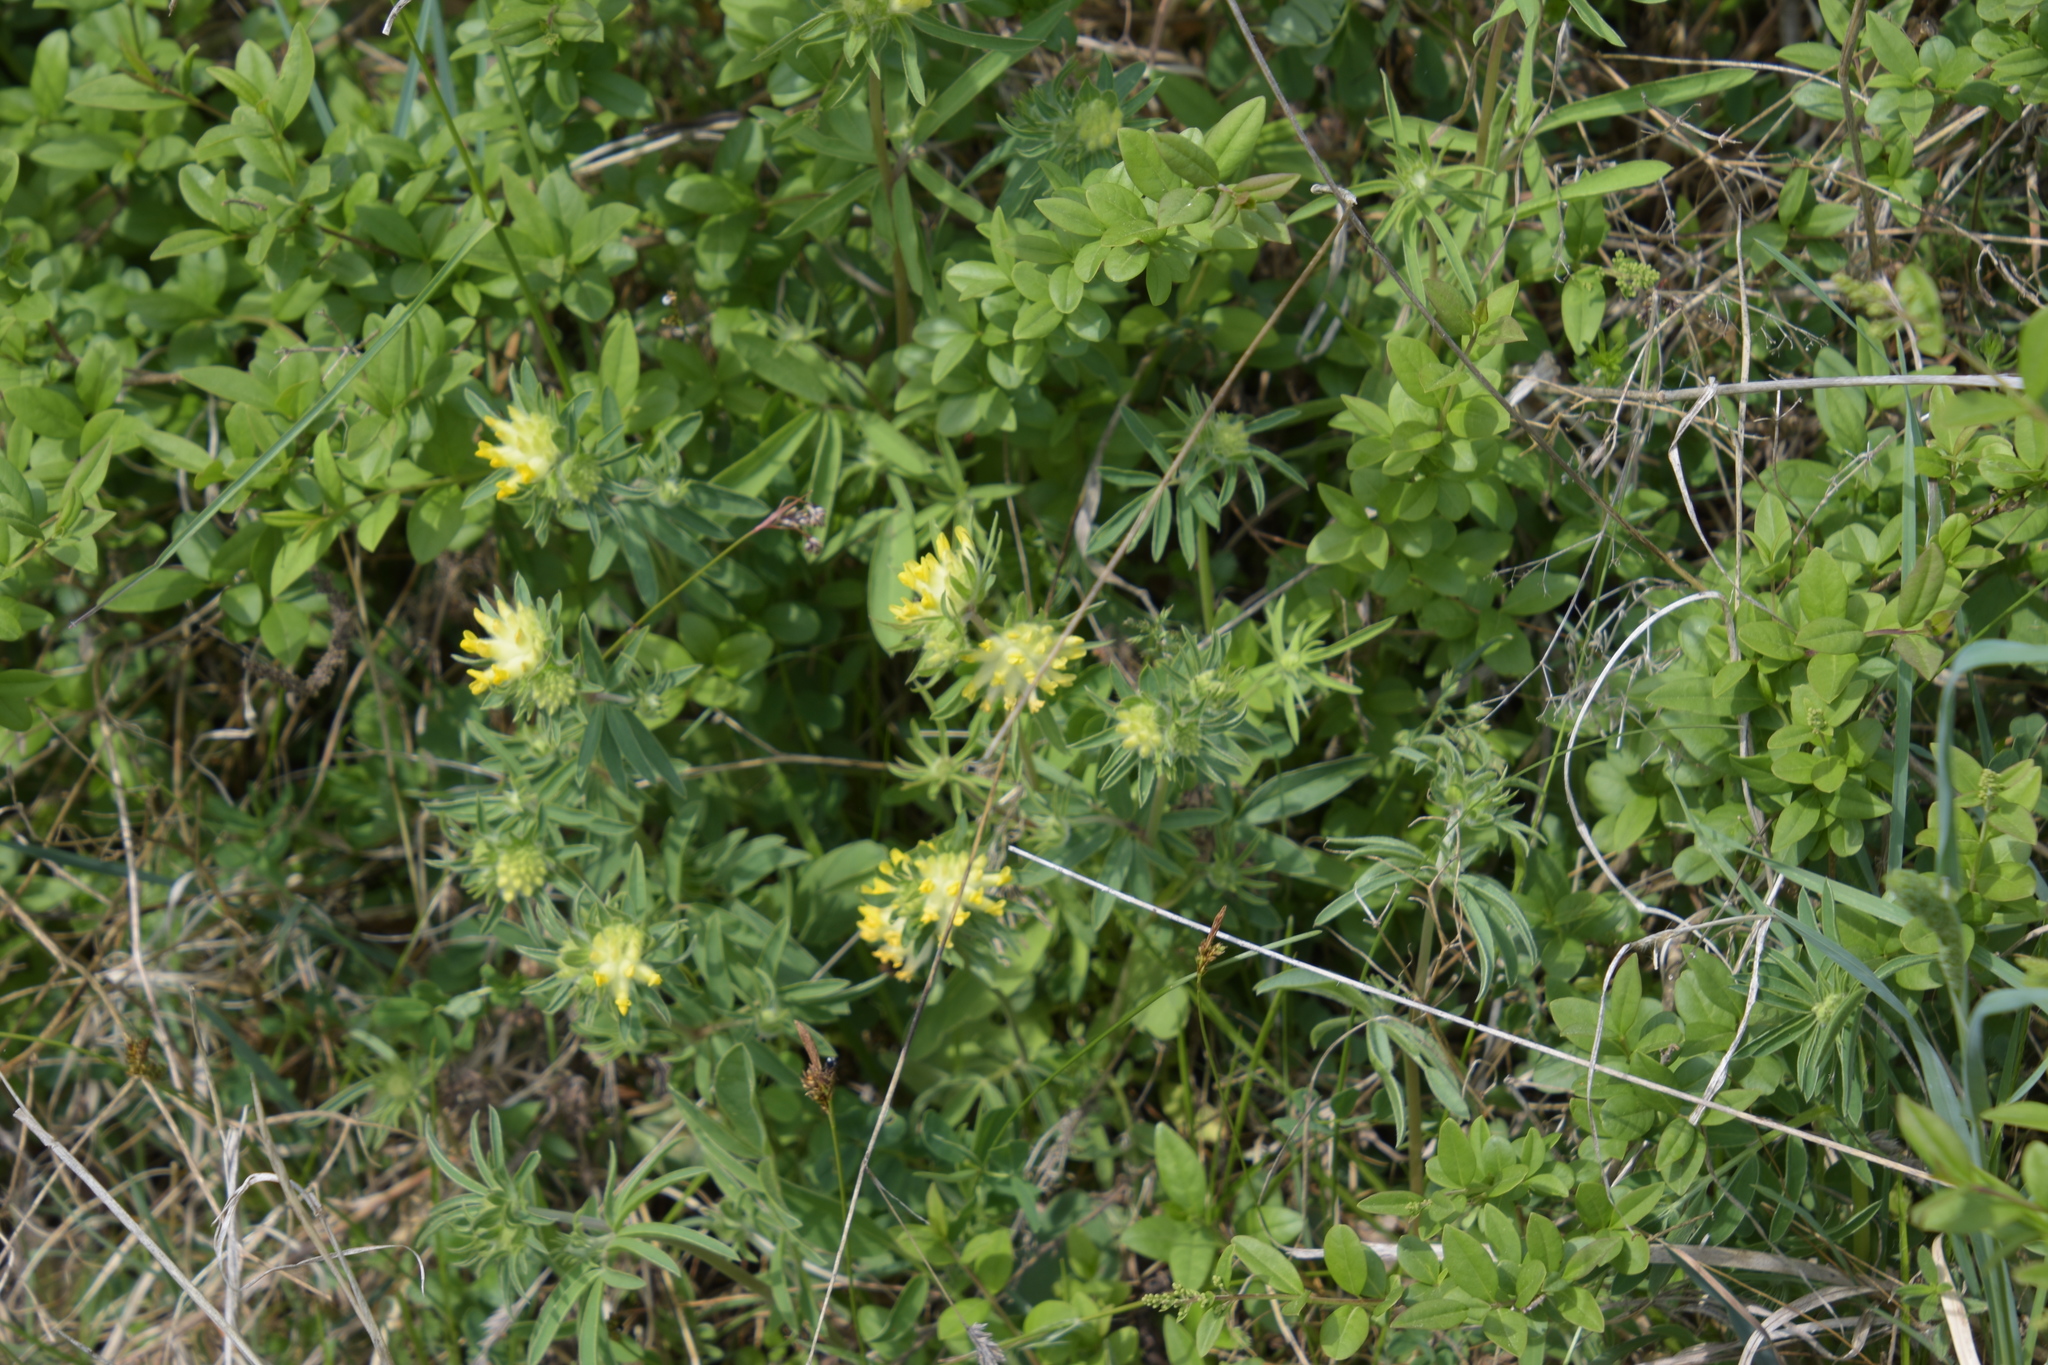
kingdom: Plantae
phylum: Tracheophyta
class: Magnoliopsida
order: Fabales
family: Fabaceae
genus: Anthyllis
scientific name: Anthyllis vulneraria
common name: Kidney vetch
